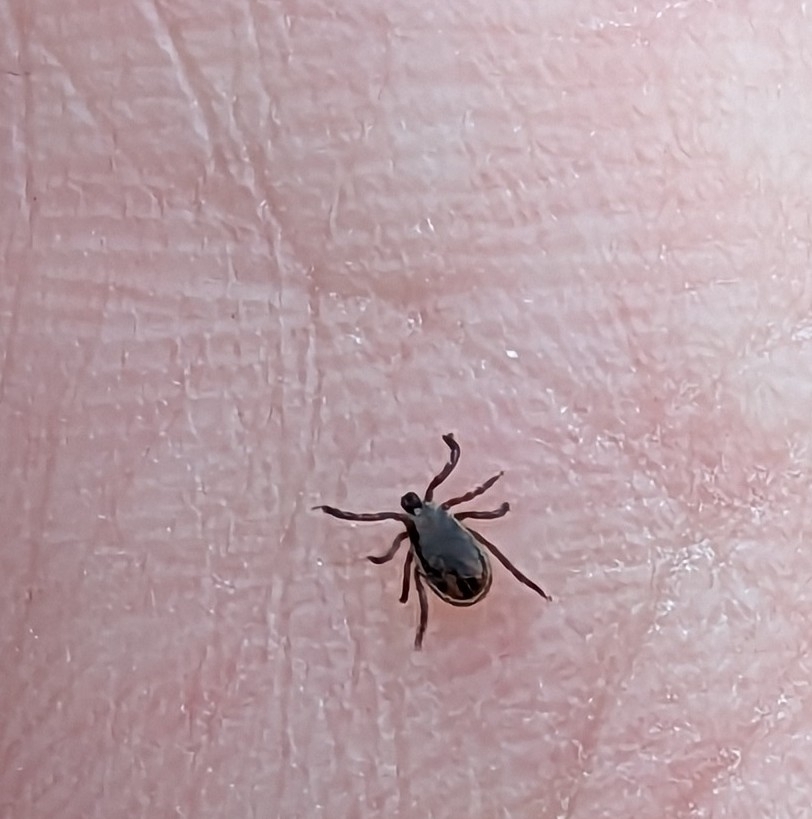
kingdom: Animalia
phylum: Arthropoda
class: Arachnida
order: Ixodida
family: Ixodidae
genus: Ixodes
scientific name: Ixodes scapularis
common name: Black legged tick
